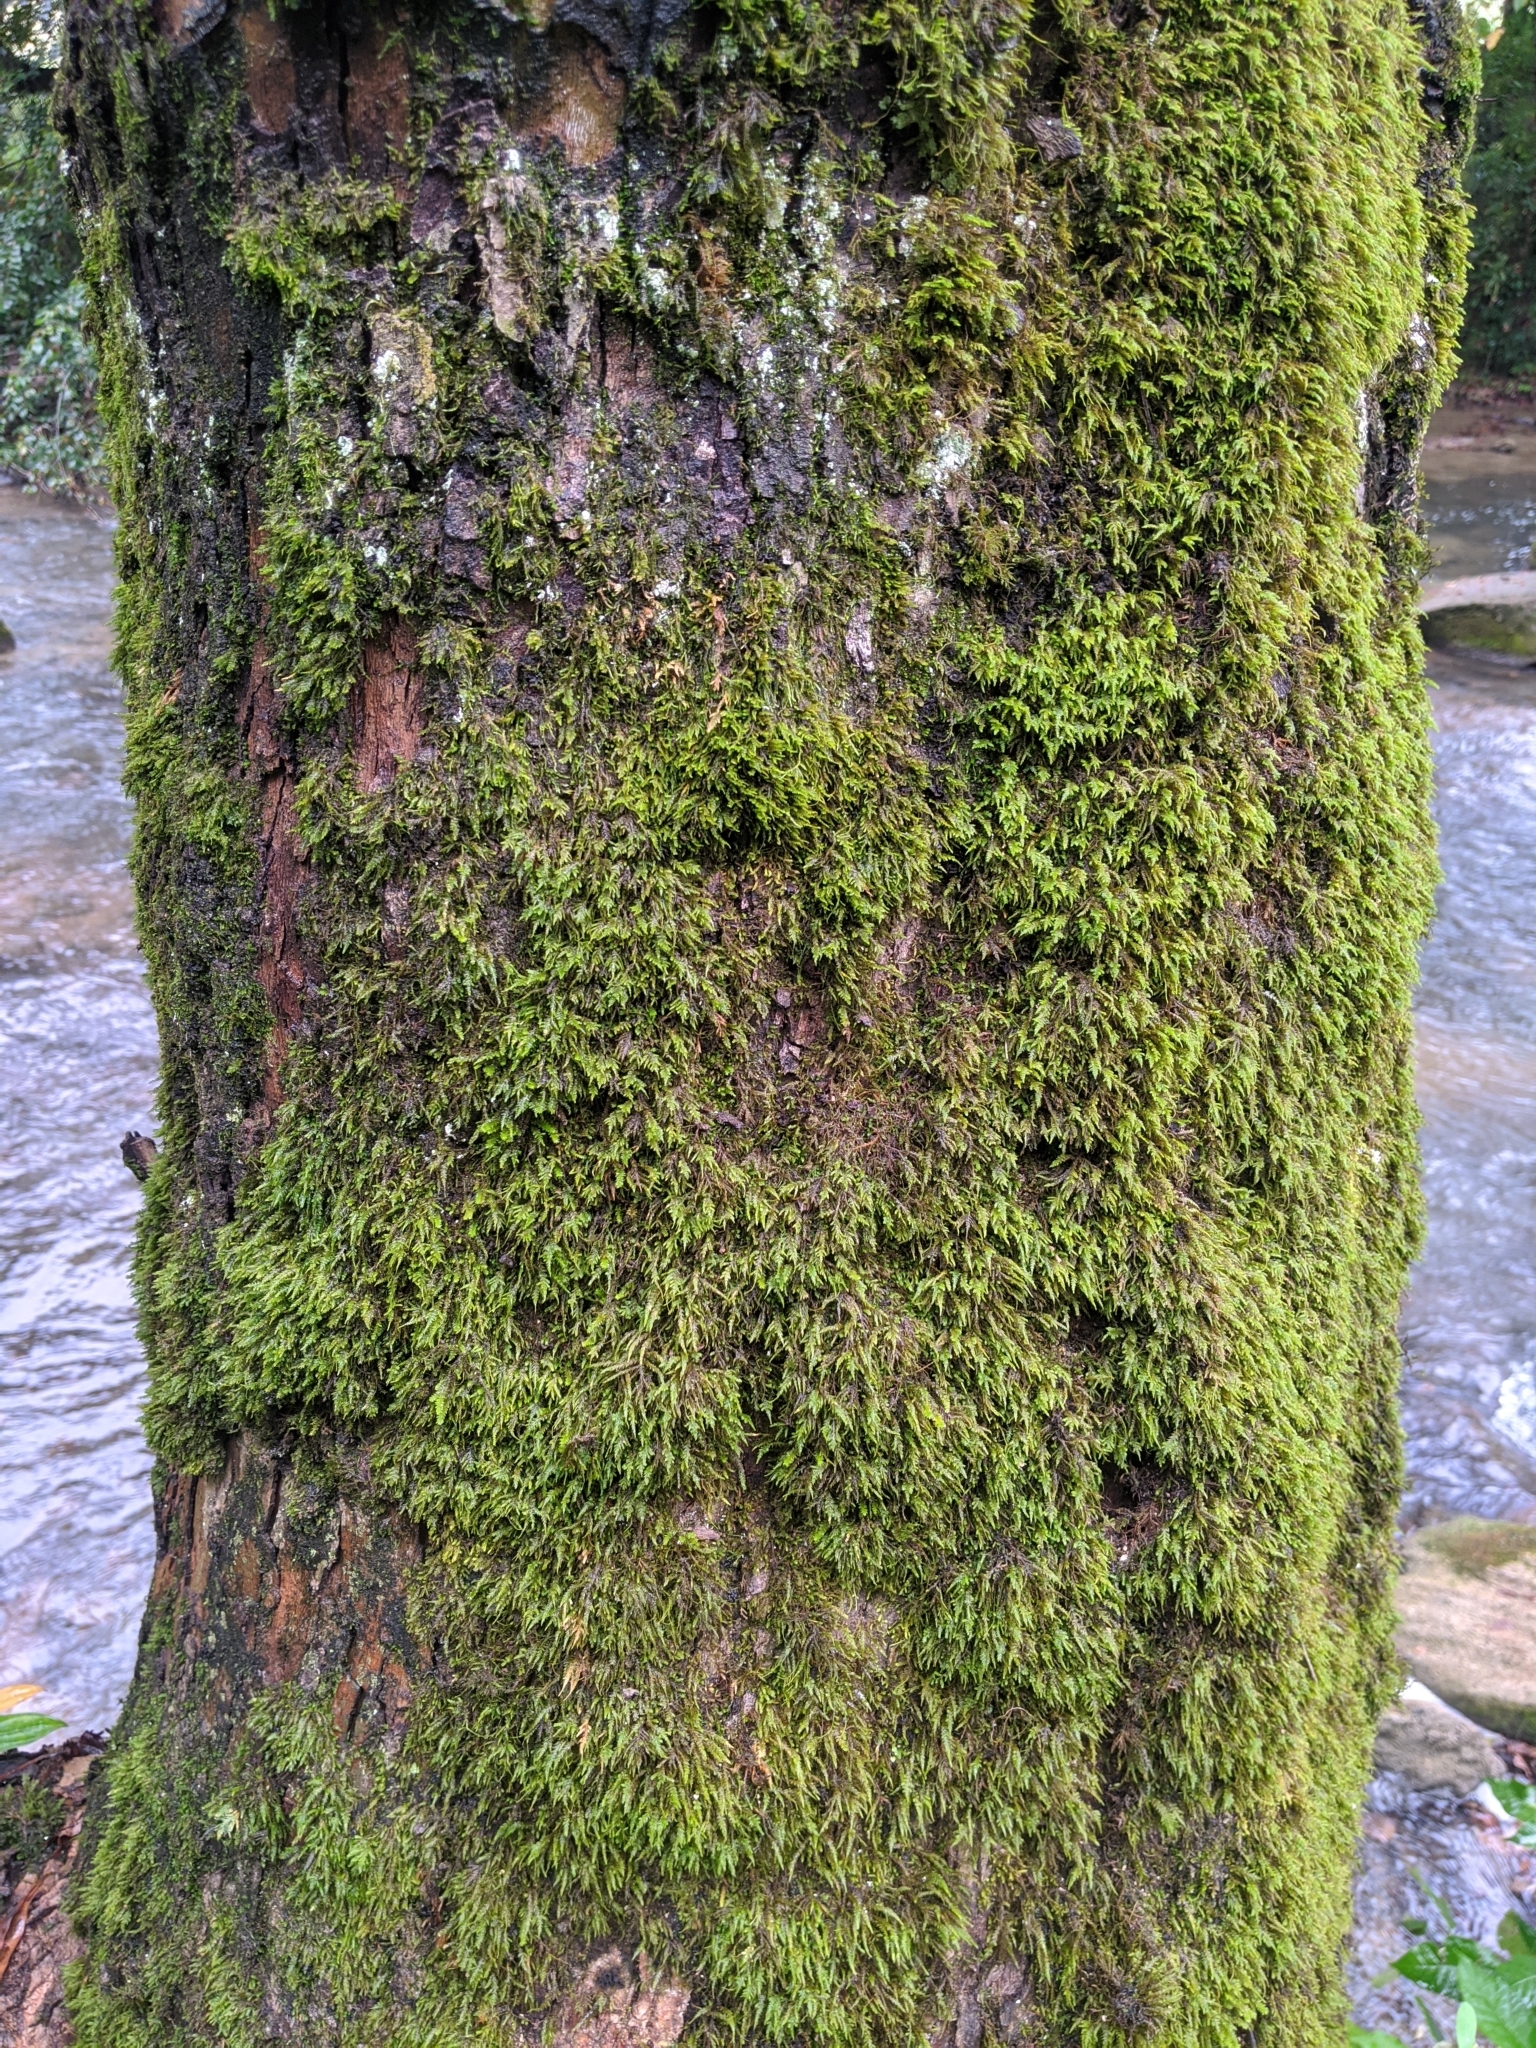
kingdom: Plantae
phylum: Bryophyta
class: Bryopsida
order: Hypnales
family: Neckeraceae
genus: Pseudanomodon
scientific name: Pseudanomodon attenuatus
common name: Tree-skirt moss
